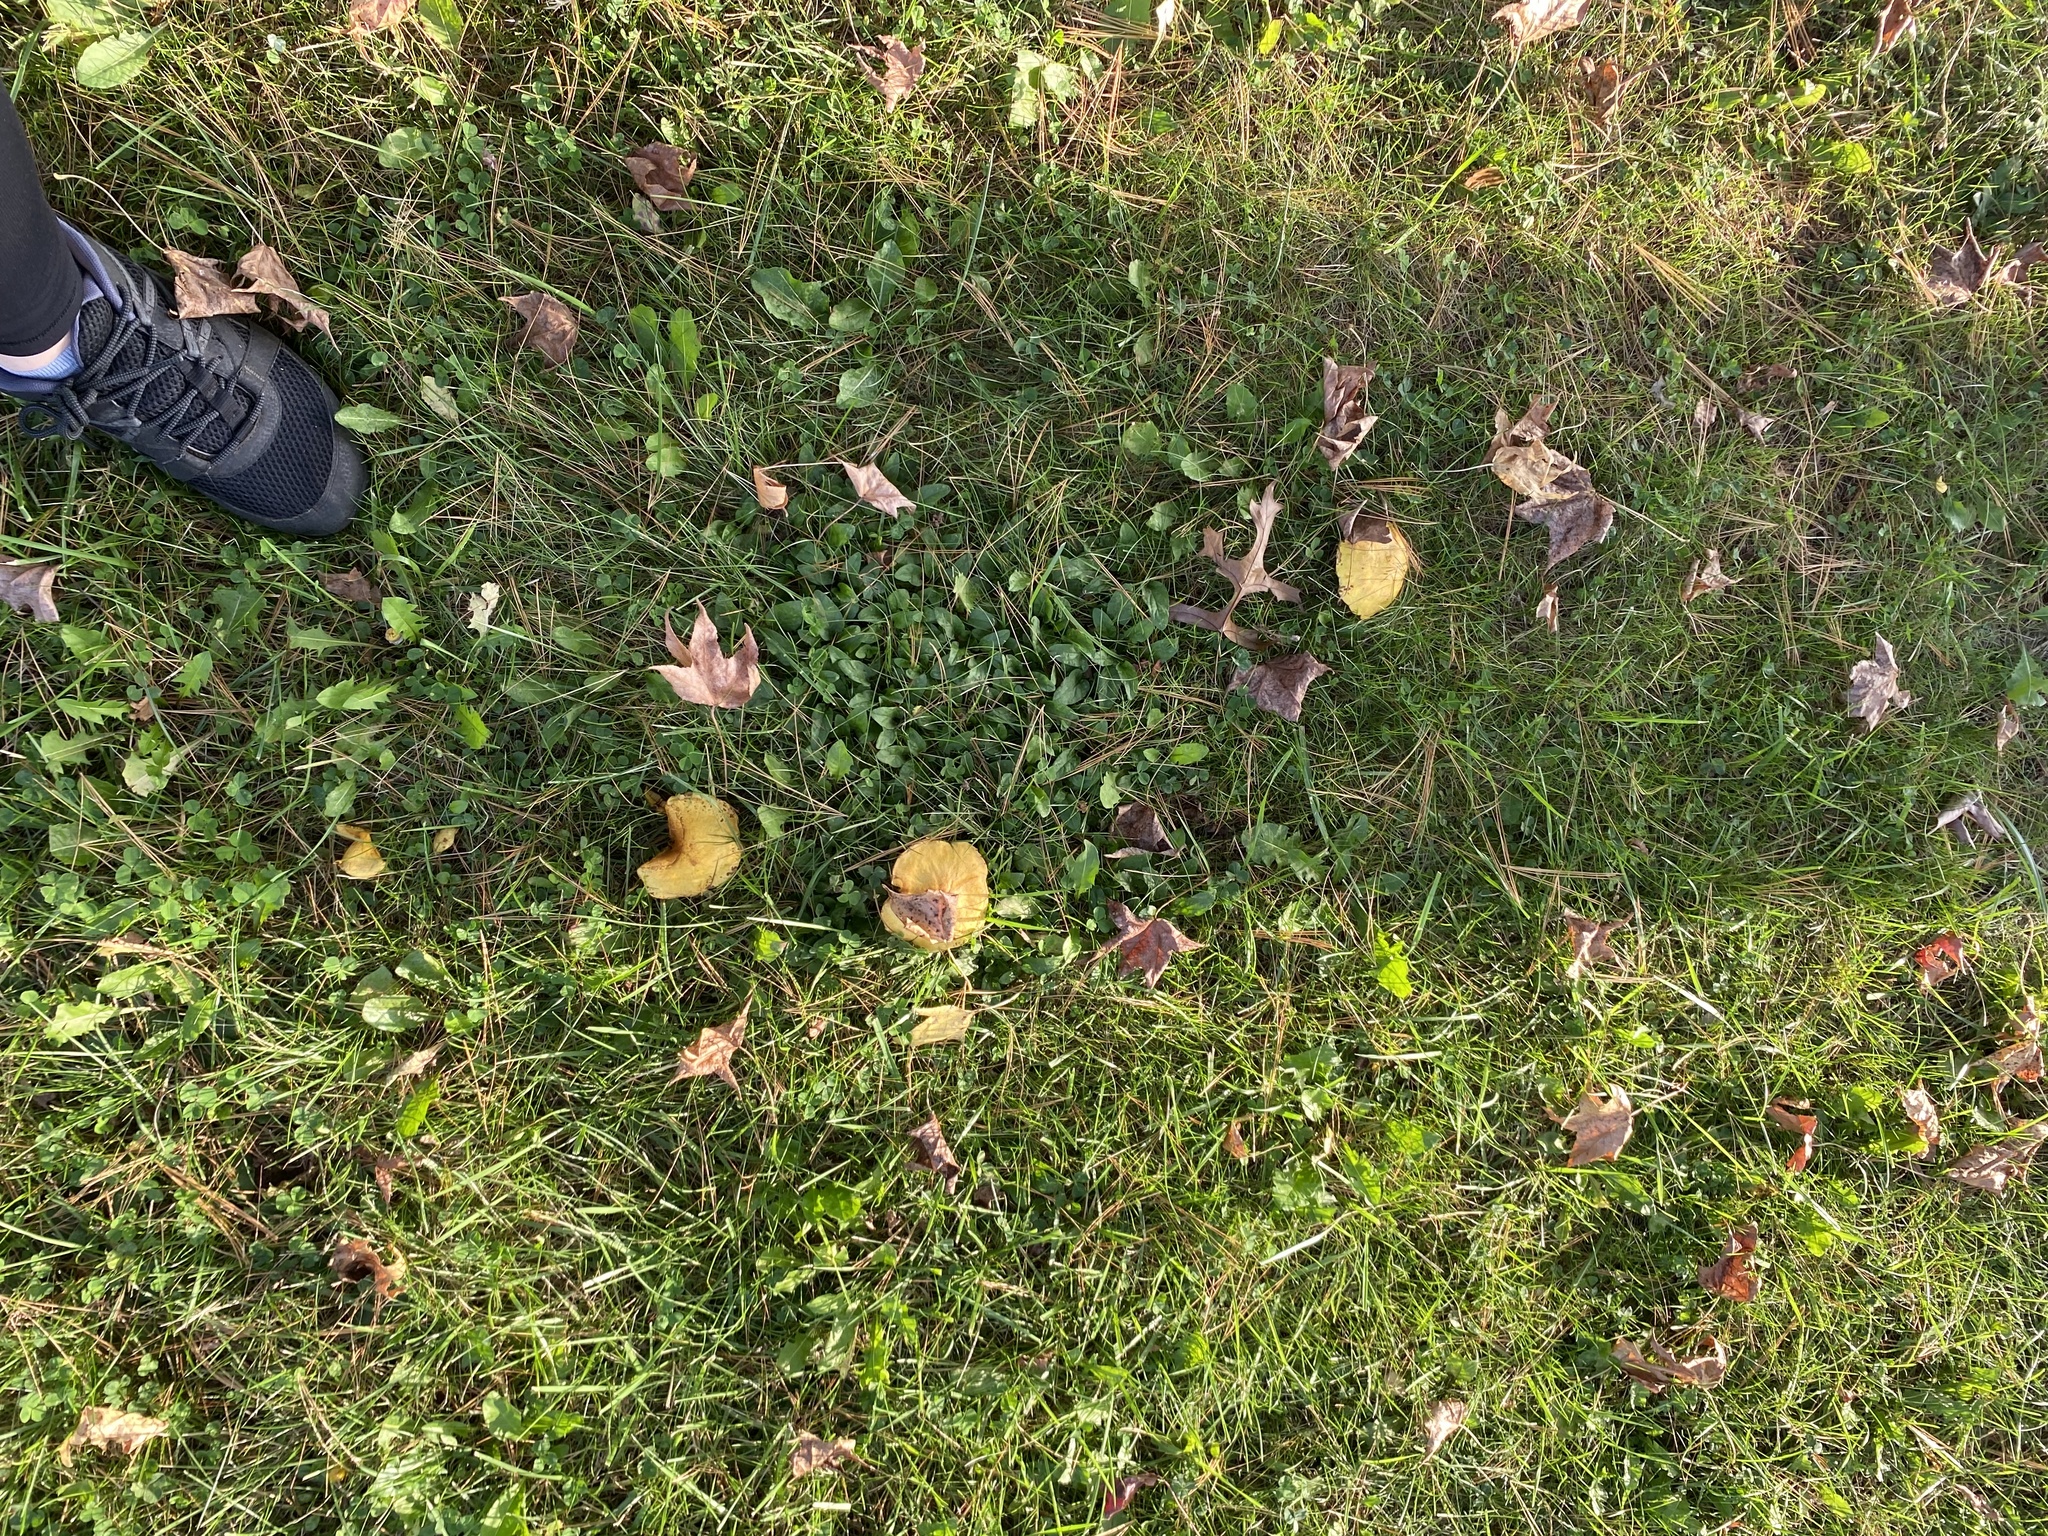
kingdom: Fungi
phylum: Basidiomycota
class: Agaricomycetes
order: Boletales
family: Suillaceae
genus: Suillus
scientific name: Suillus americanus
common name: Chicken fat mushroom
